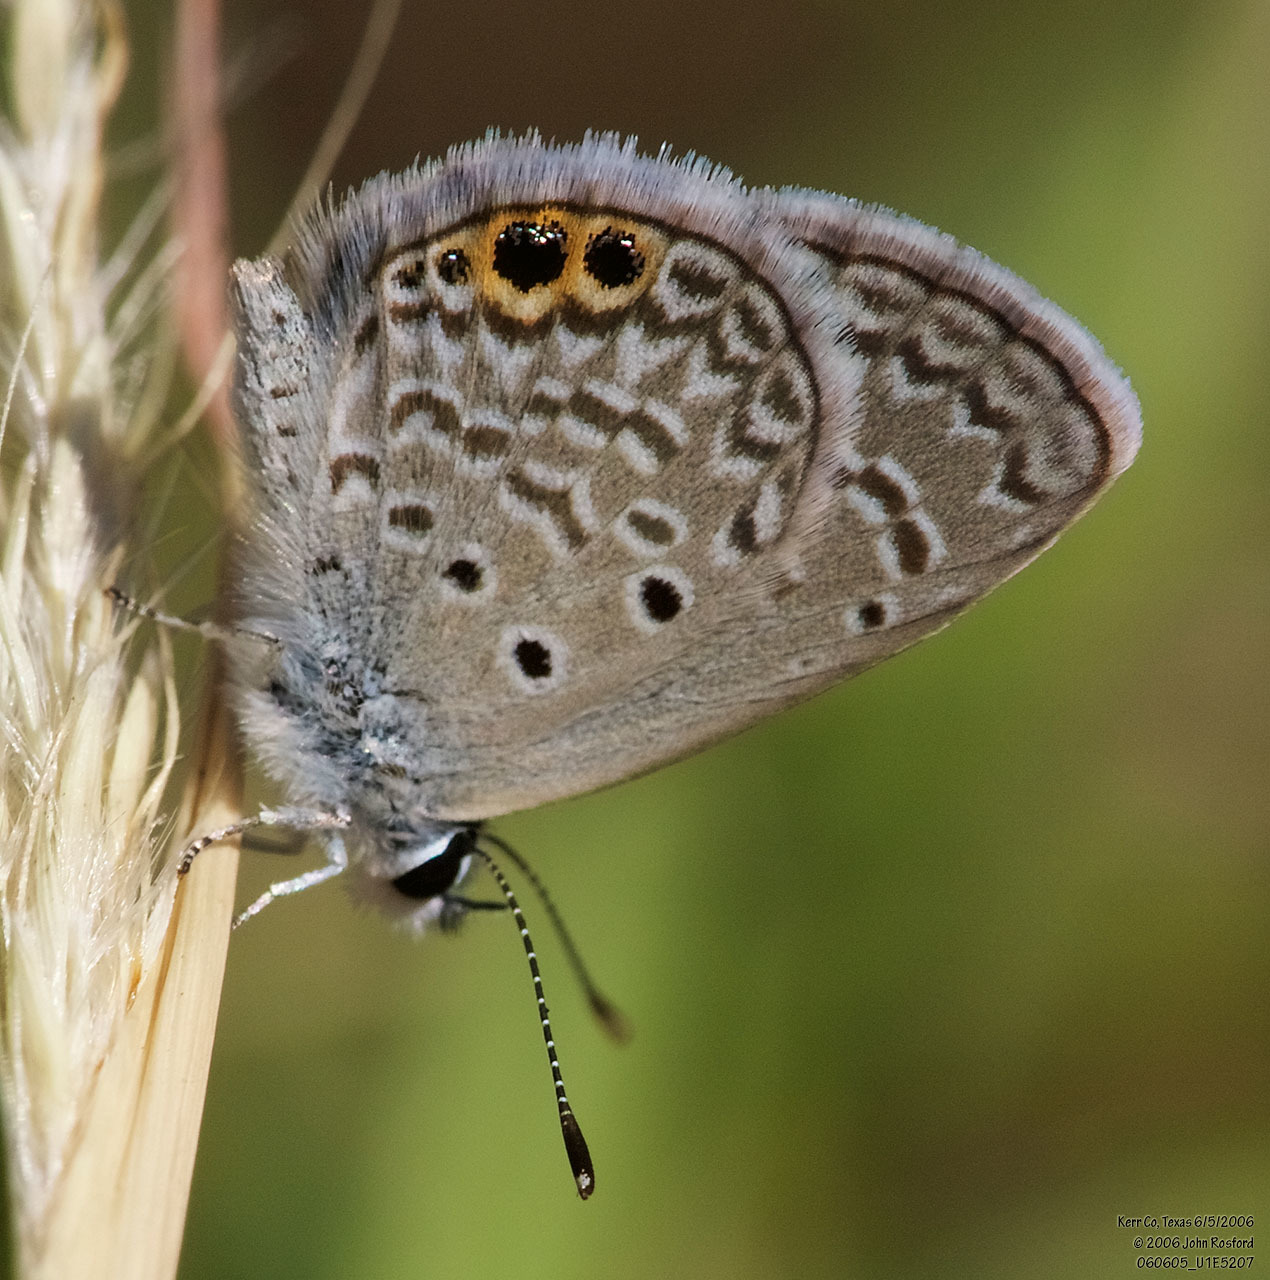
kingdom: Animalia
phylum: Arthropoda
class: Insecta
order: Lepidoptera
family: Lycaenidae
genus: Hemiargus
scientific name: Hemiargus ceraunus
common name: Ceraunus blue
